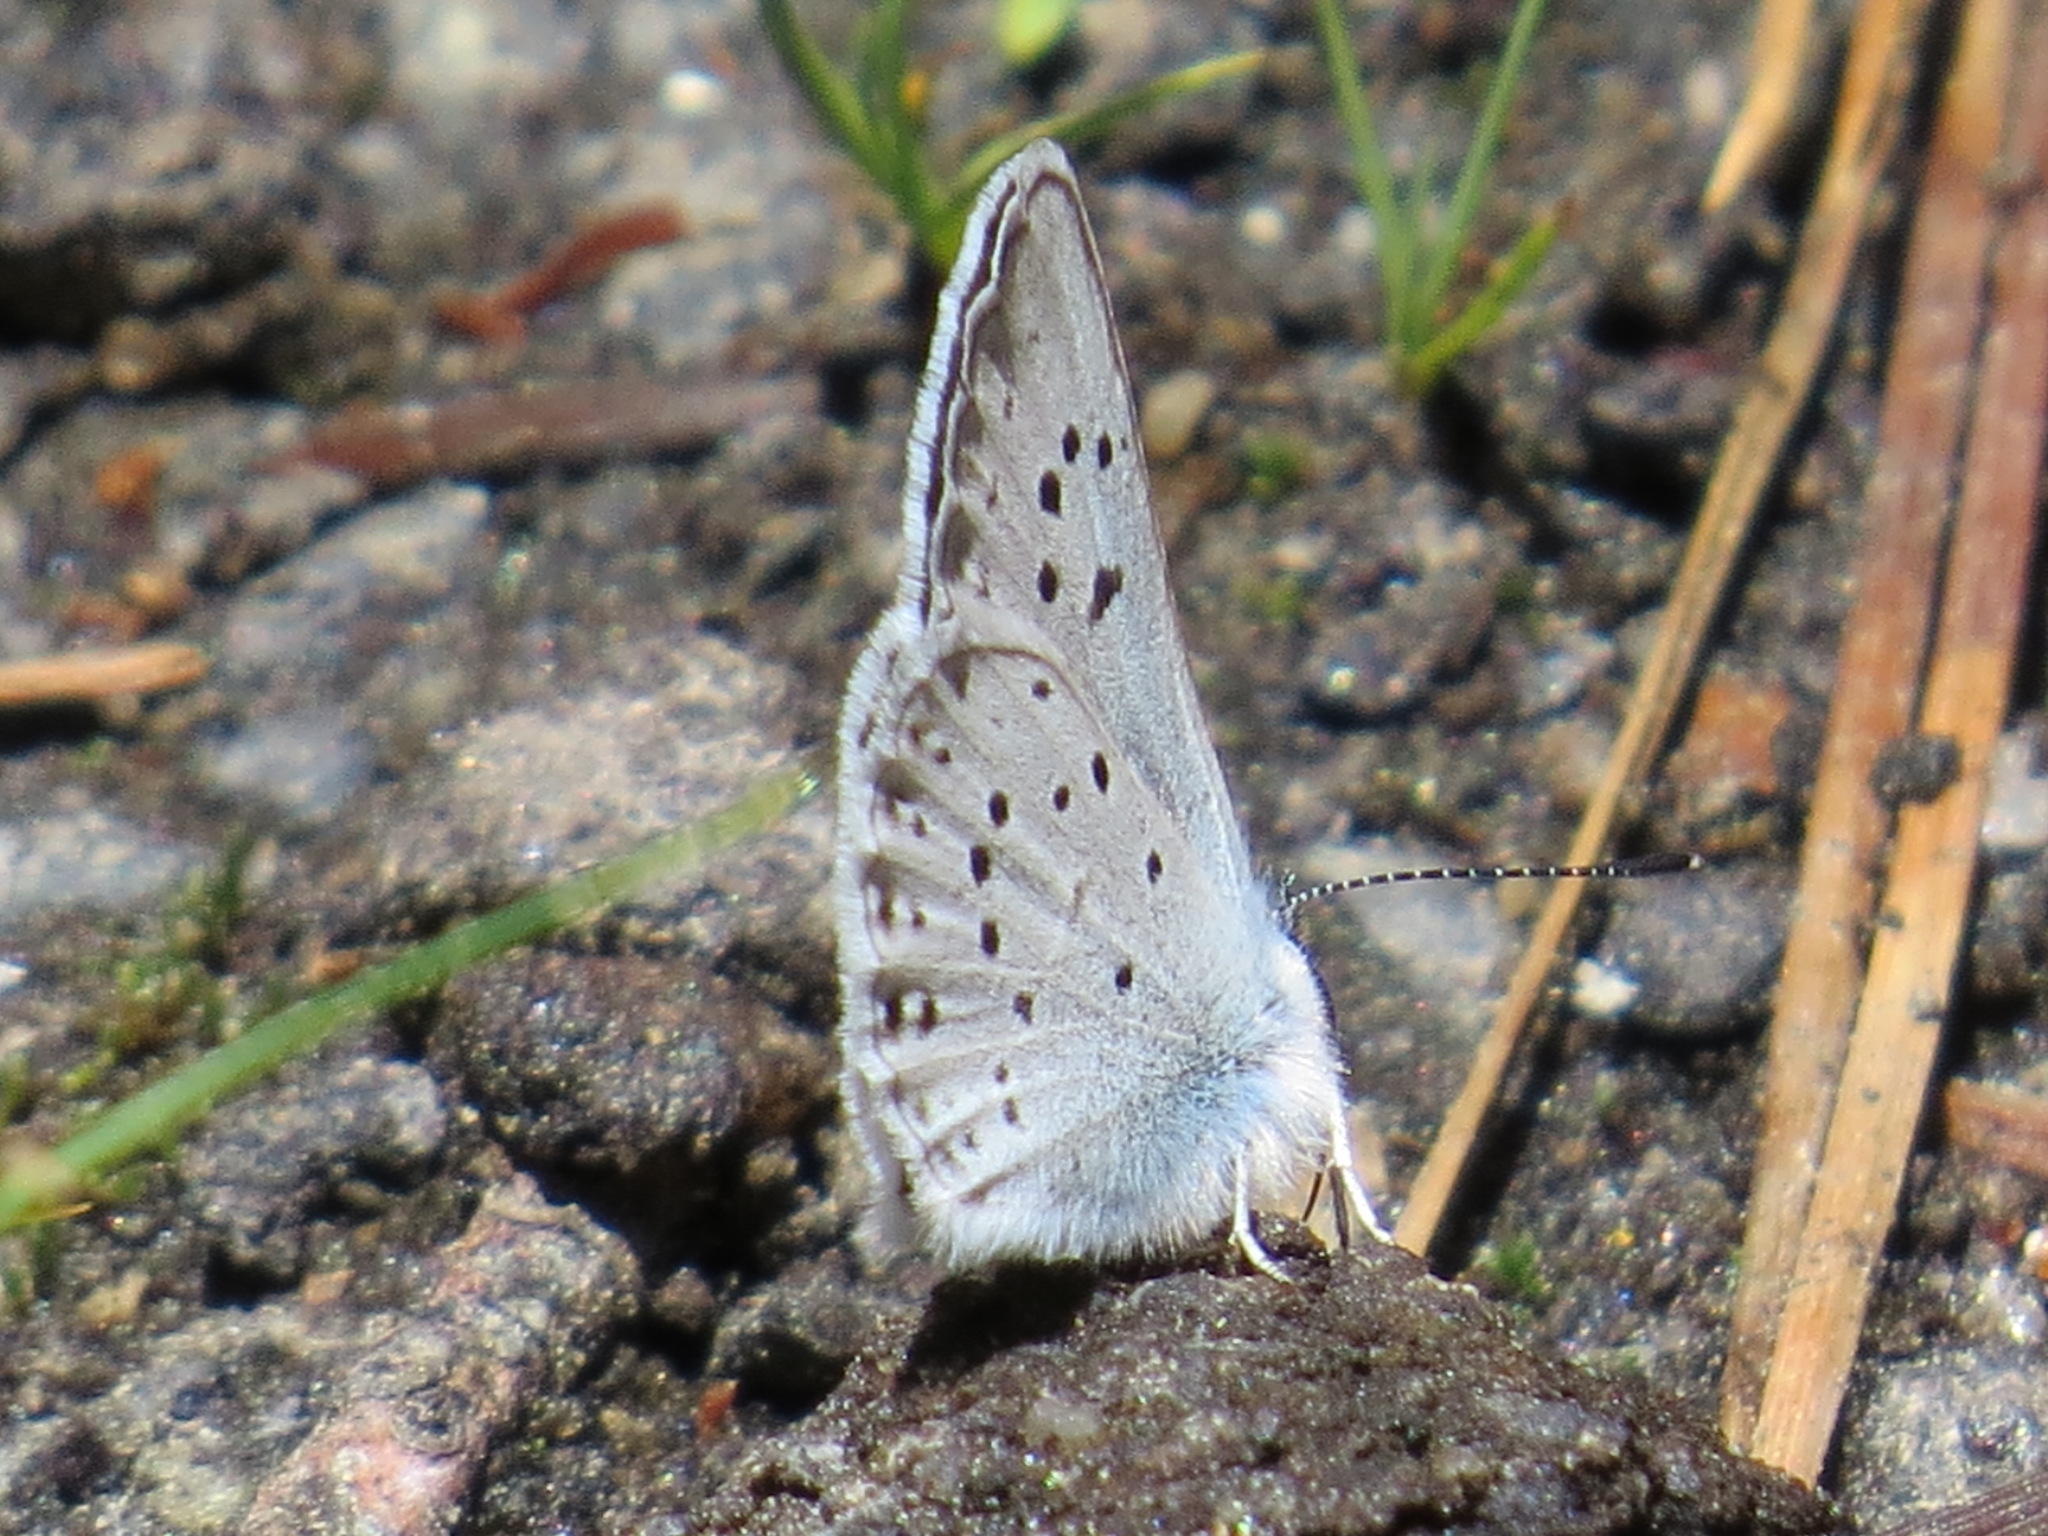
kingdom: Animalia
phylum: Arthropoda
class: Insecta
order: Lepidoptera
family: Lycaenidae
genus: Icaricia
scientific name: Icaricia saepiolus
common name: Greenish blue
